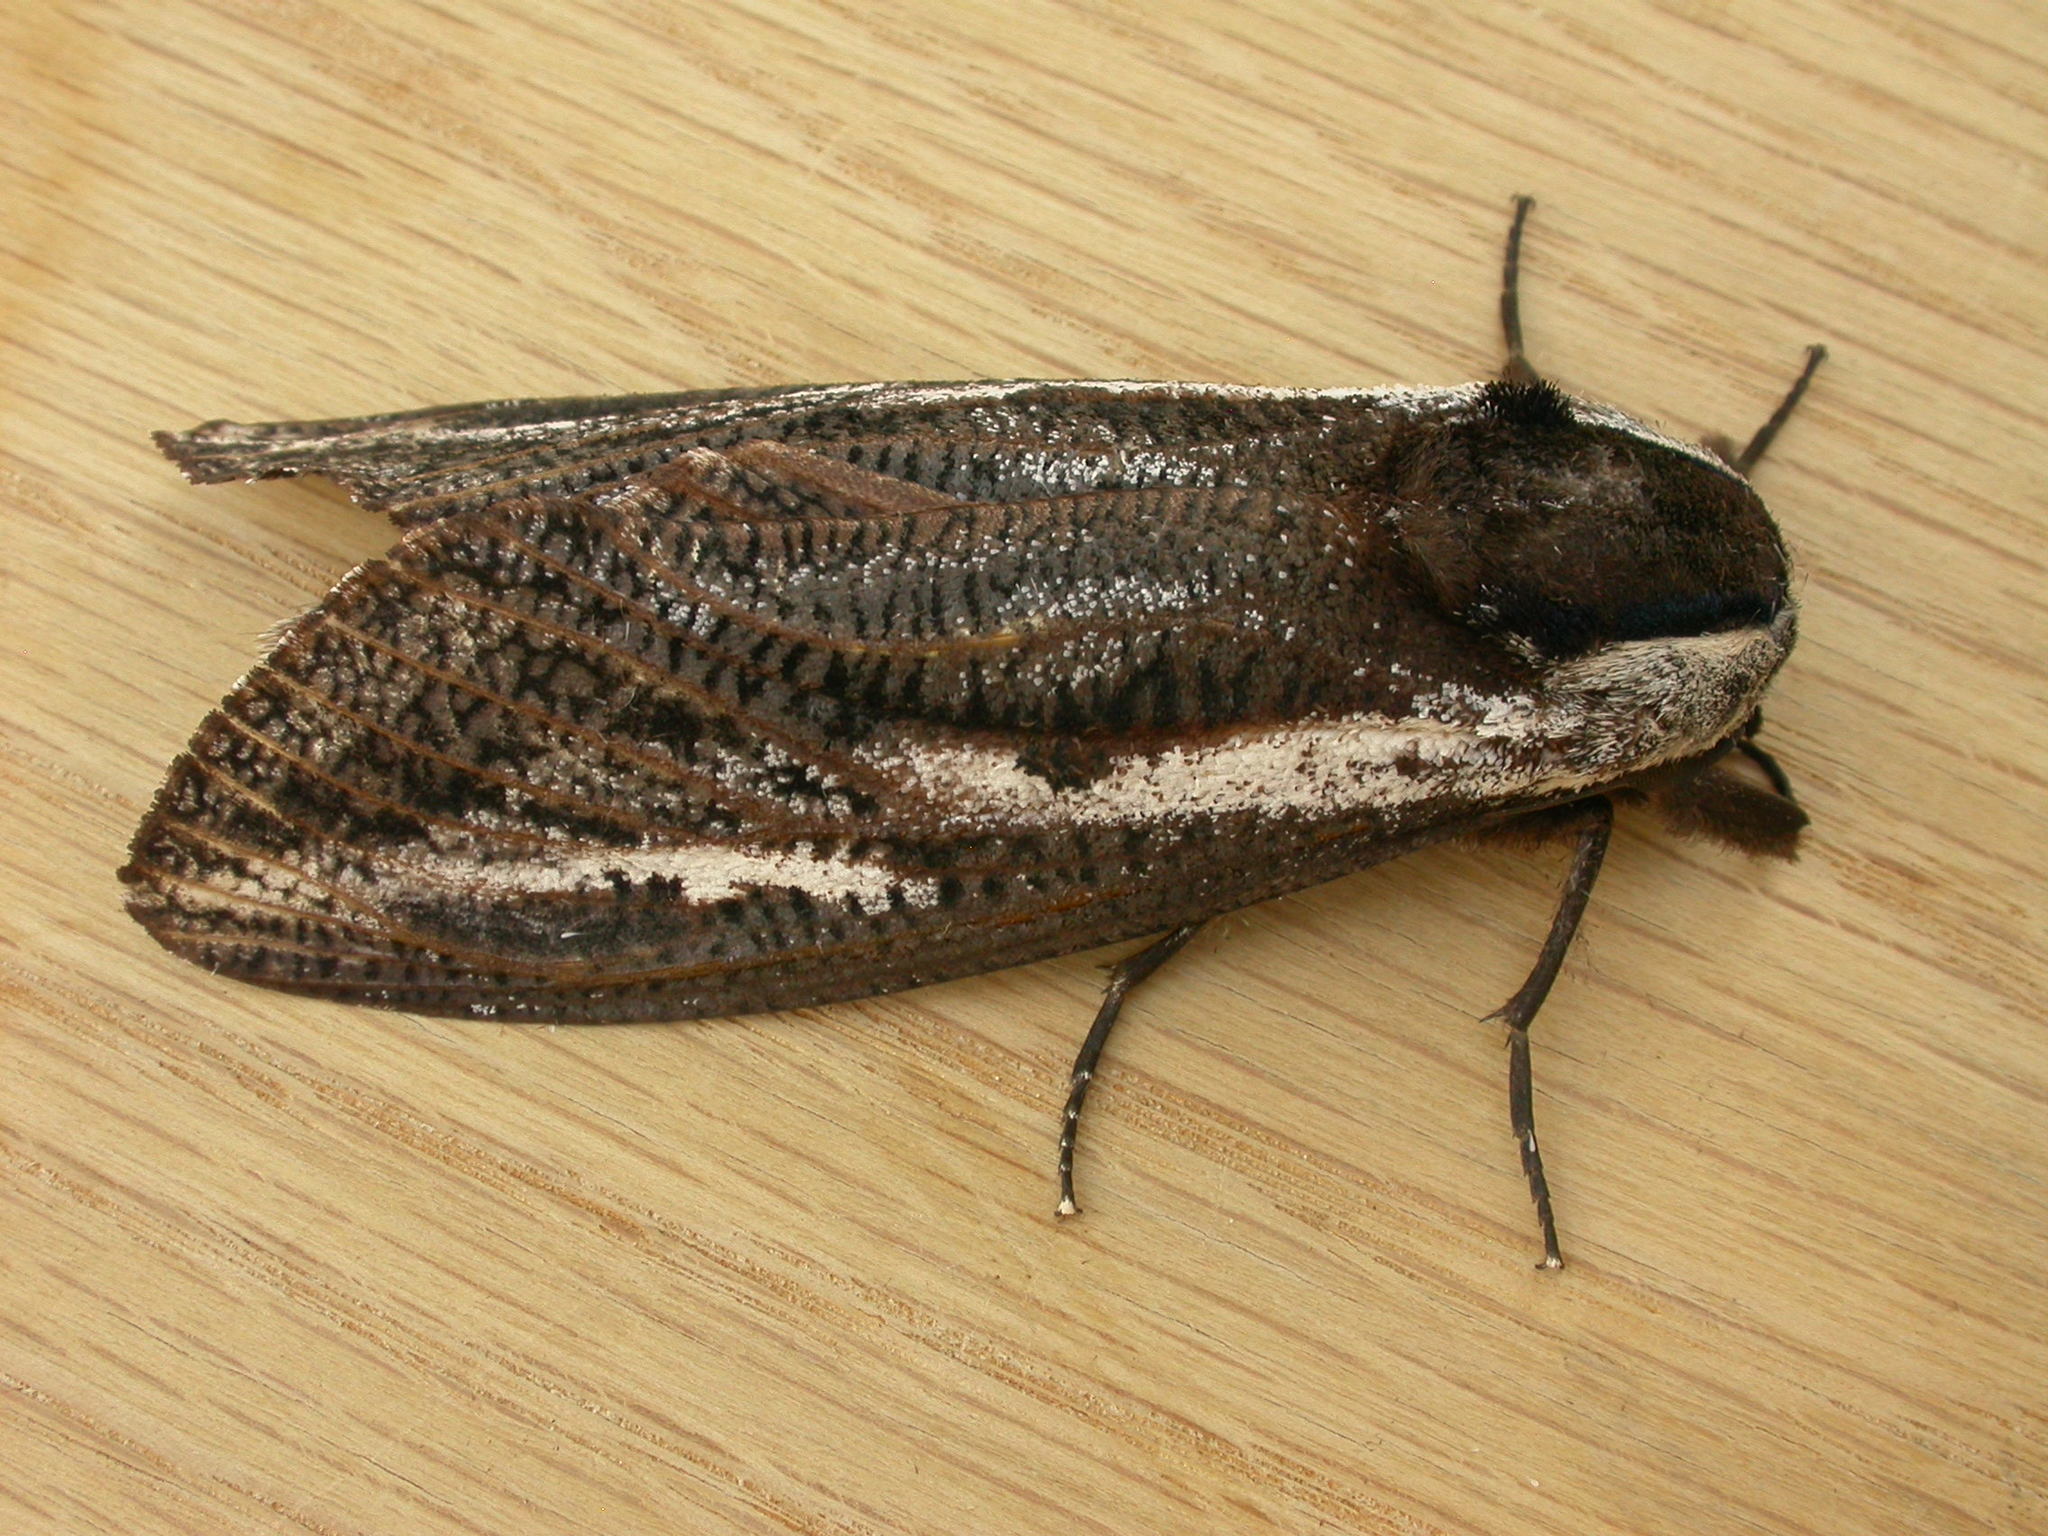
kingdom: Animalia
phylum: Arthropoda
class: Insecta
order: Lepidoptera
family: Cossidae
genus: Endoxyla
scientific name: Endoxyla encalypti
